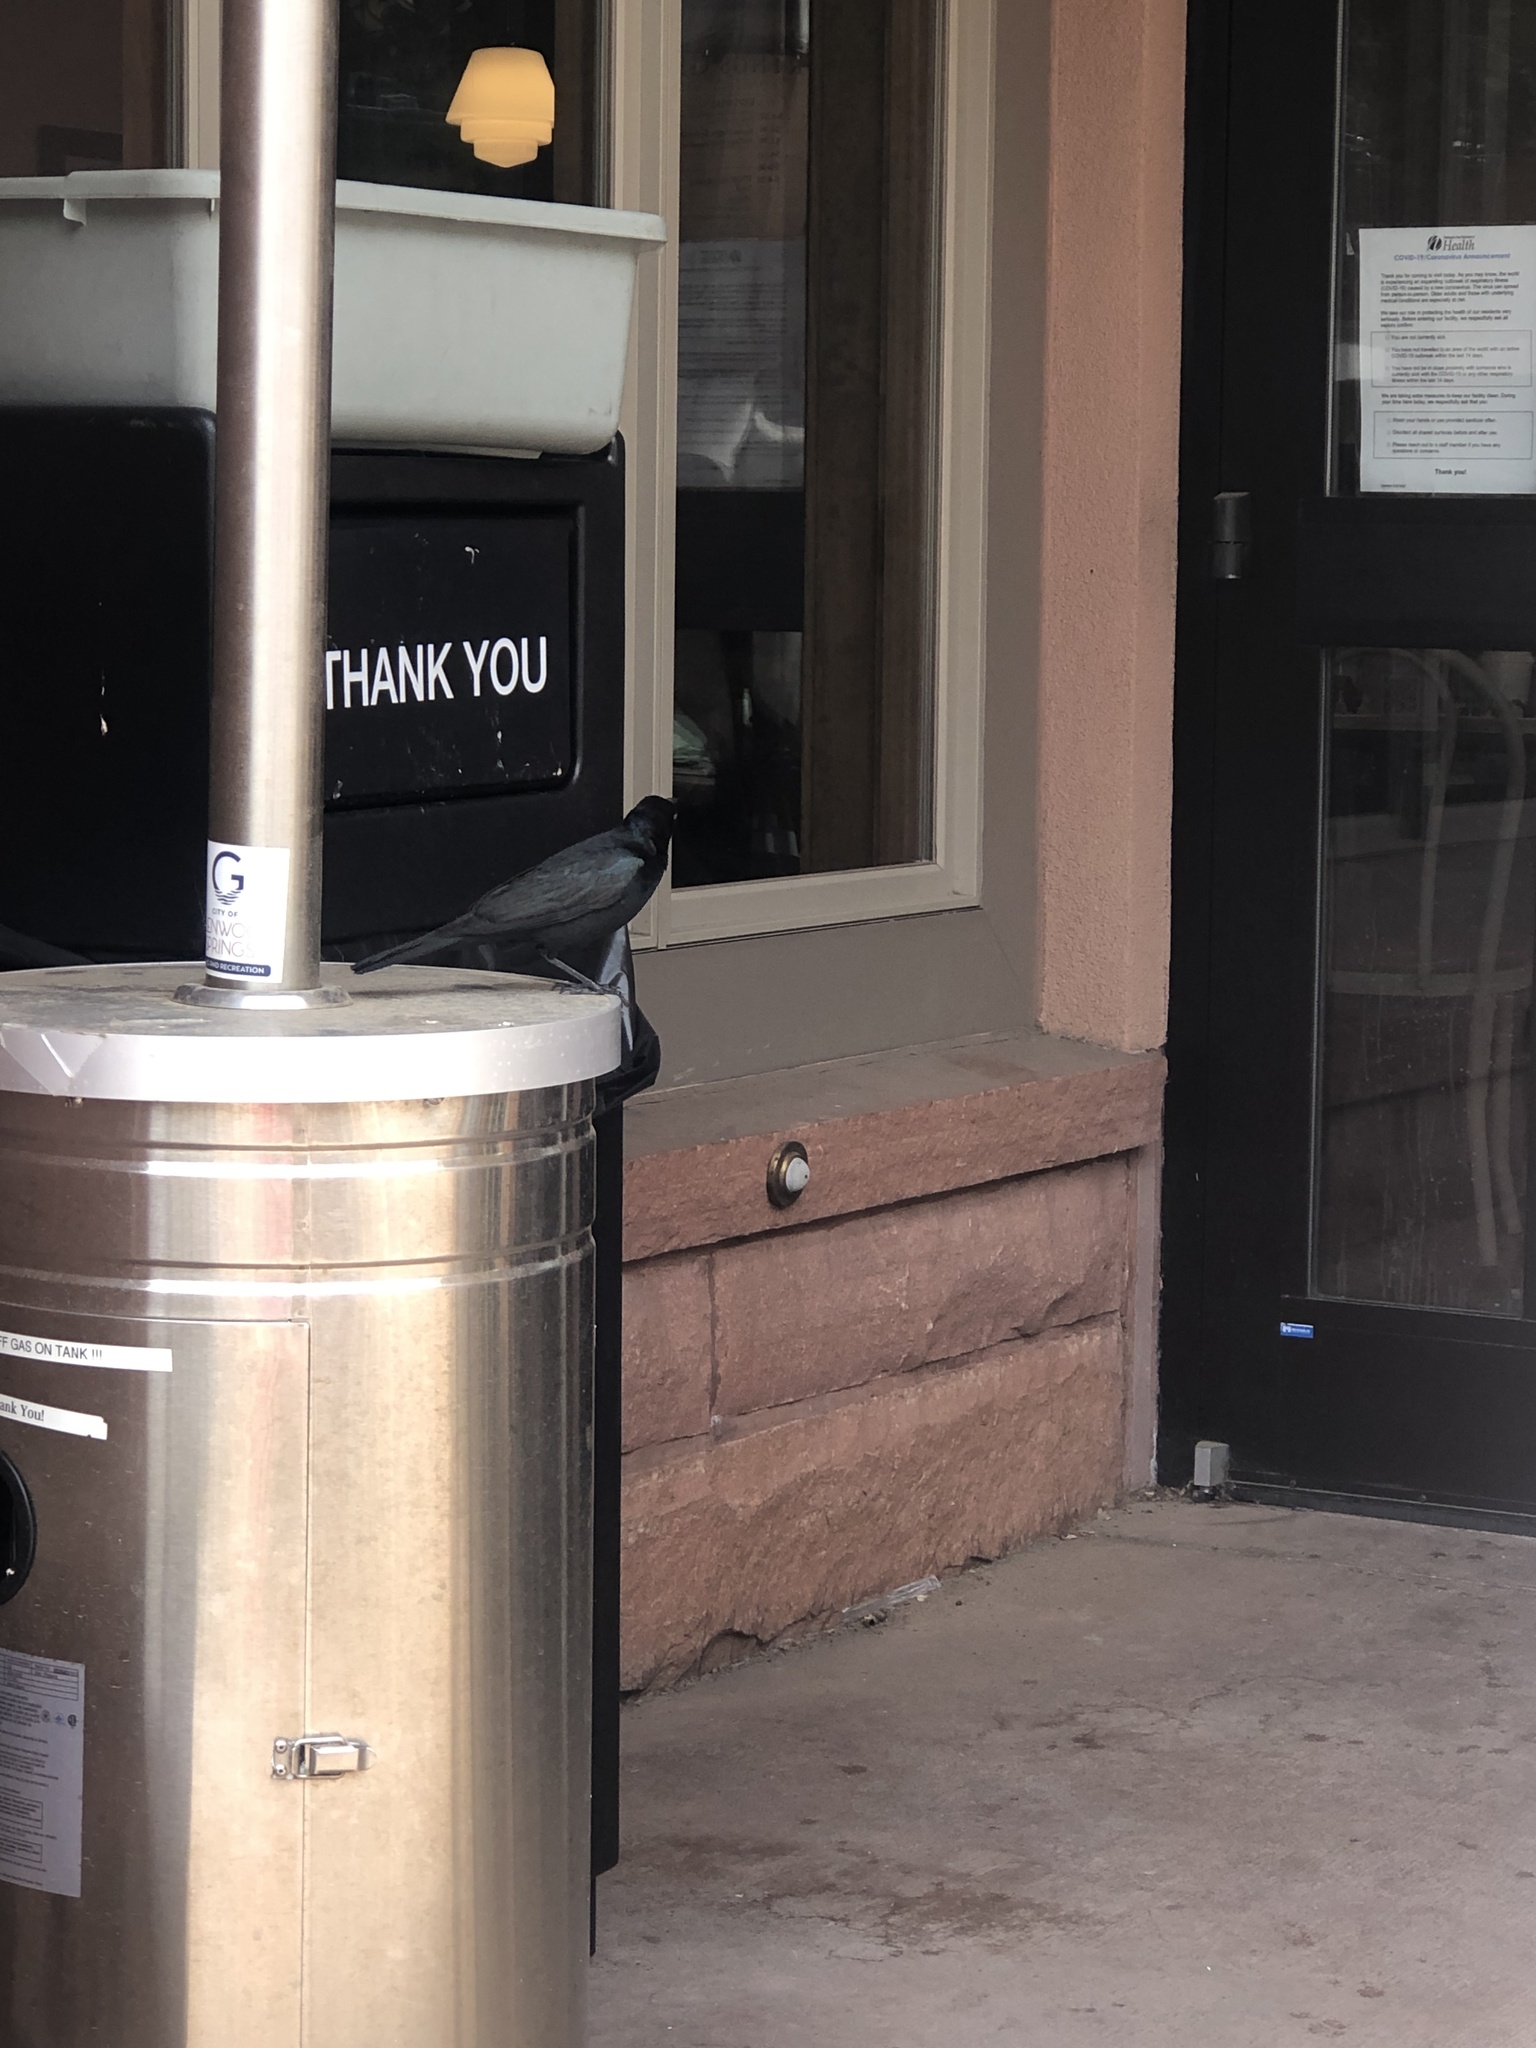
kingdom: Animalia
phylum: Chordata
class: Aves
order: Passeriformes
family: Icteridae
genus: Euphagus
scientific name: Euphagus cyanocephalus
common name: Brewer's blackbird
